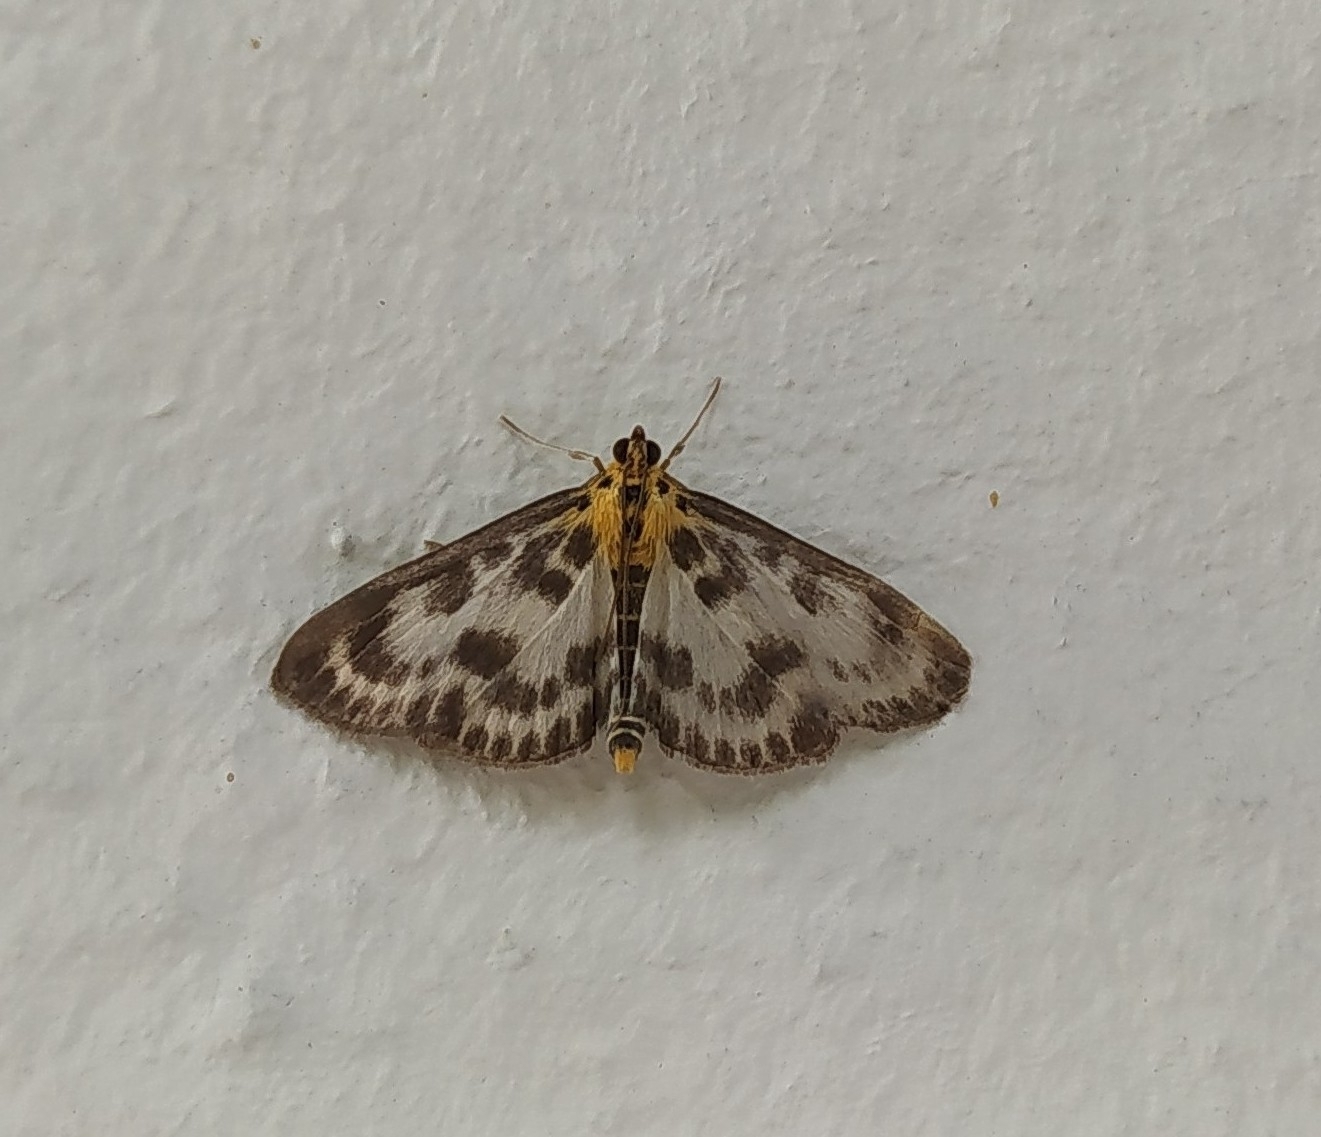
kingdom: Animalia
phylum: Arthropoda
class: Insecta
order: Lepidoptera
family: Crambidae
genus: Anania
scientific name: Anania hortulata
